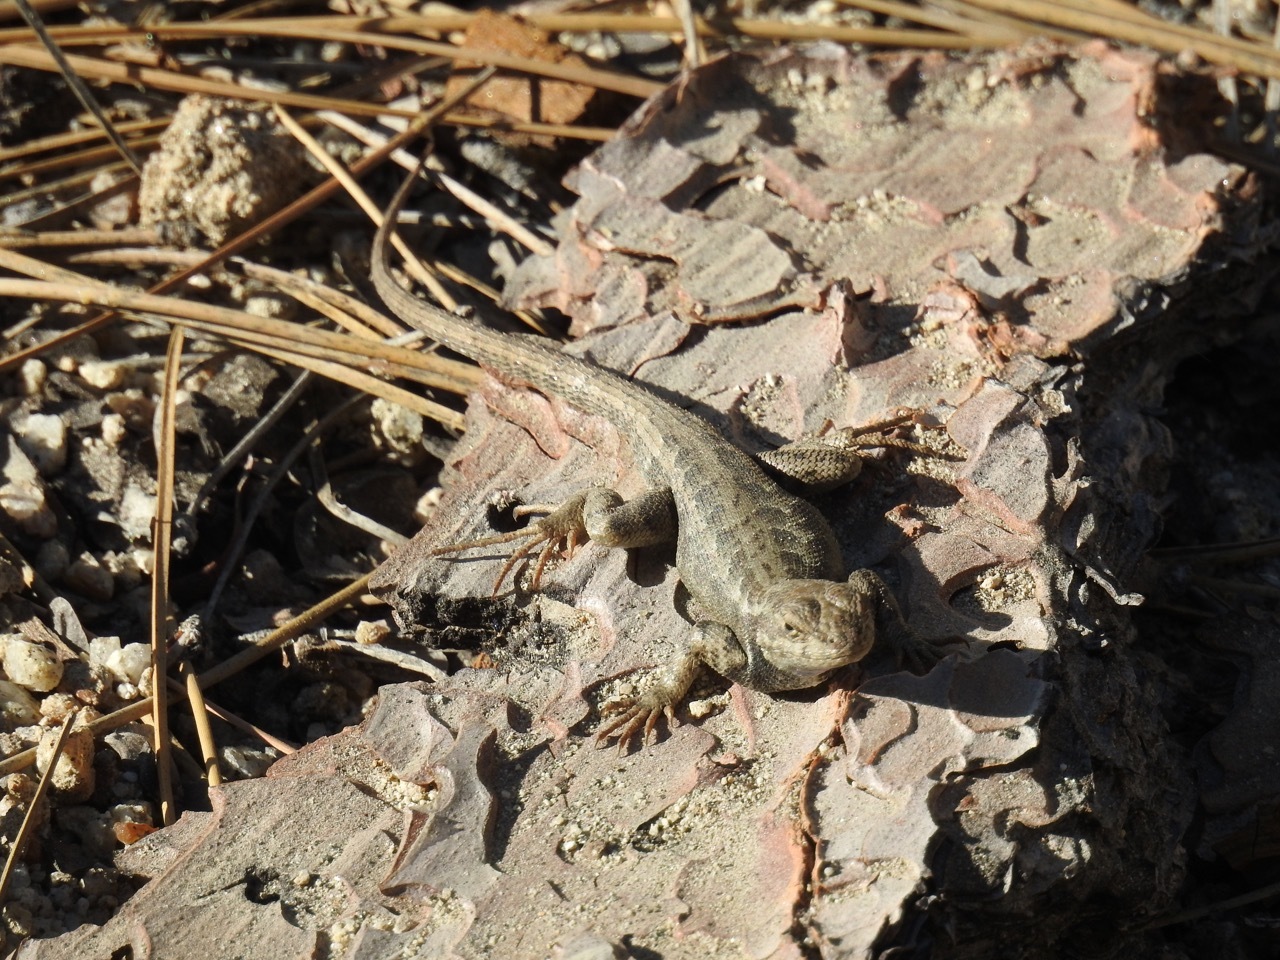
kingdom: Animalia
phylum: Chordata
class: Squamata
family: Phrynosomatidae
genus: Sceloporus
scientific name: Sceloporus graciosus
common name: Sagebrush lizard
